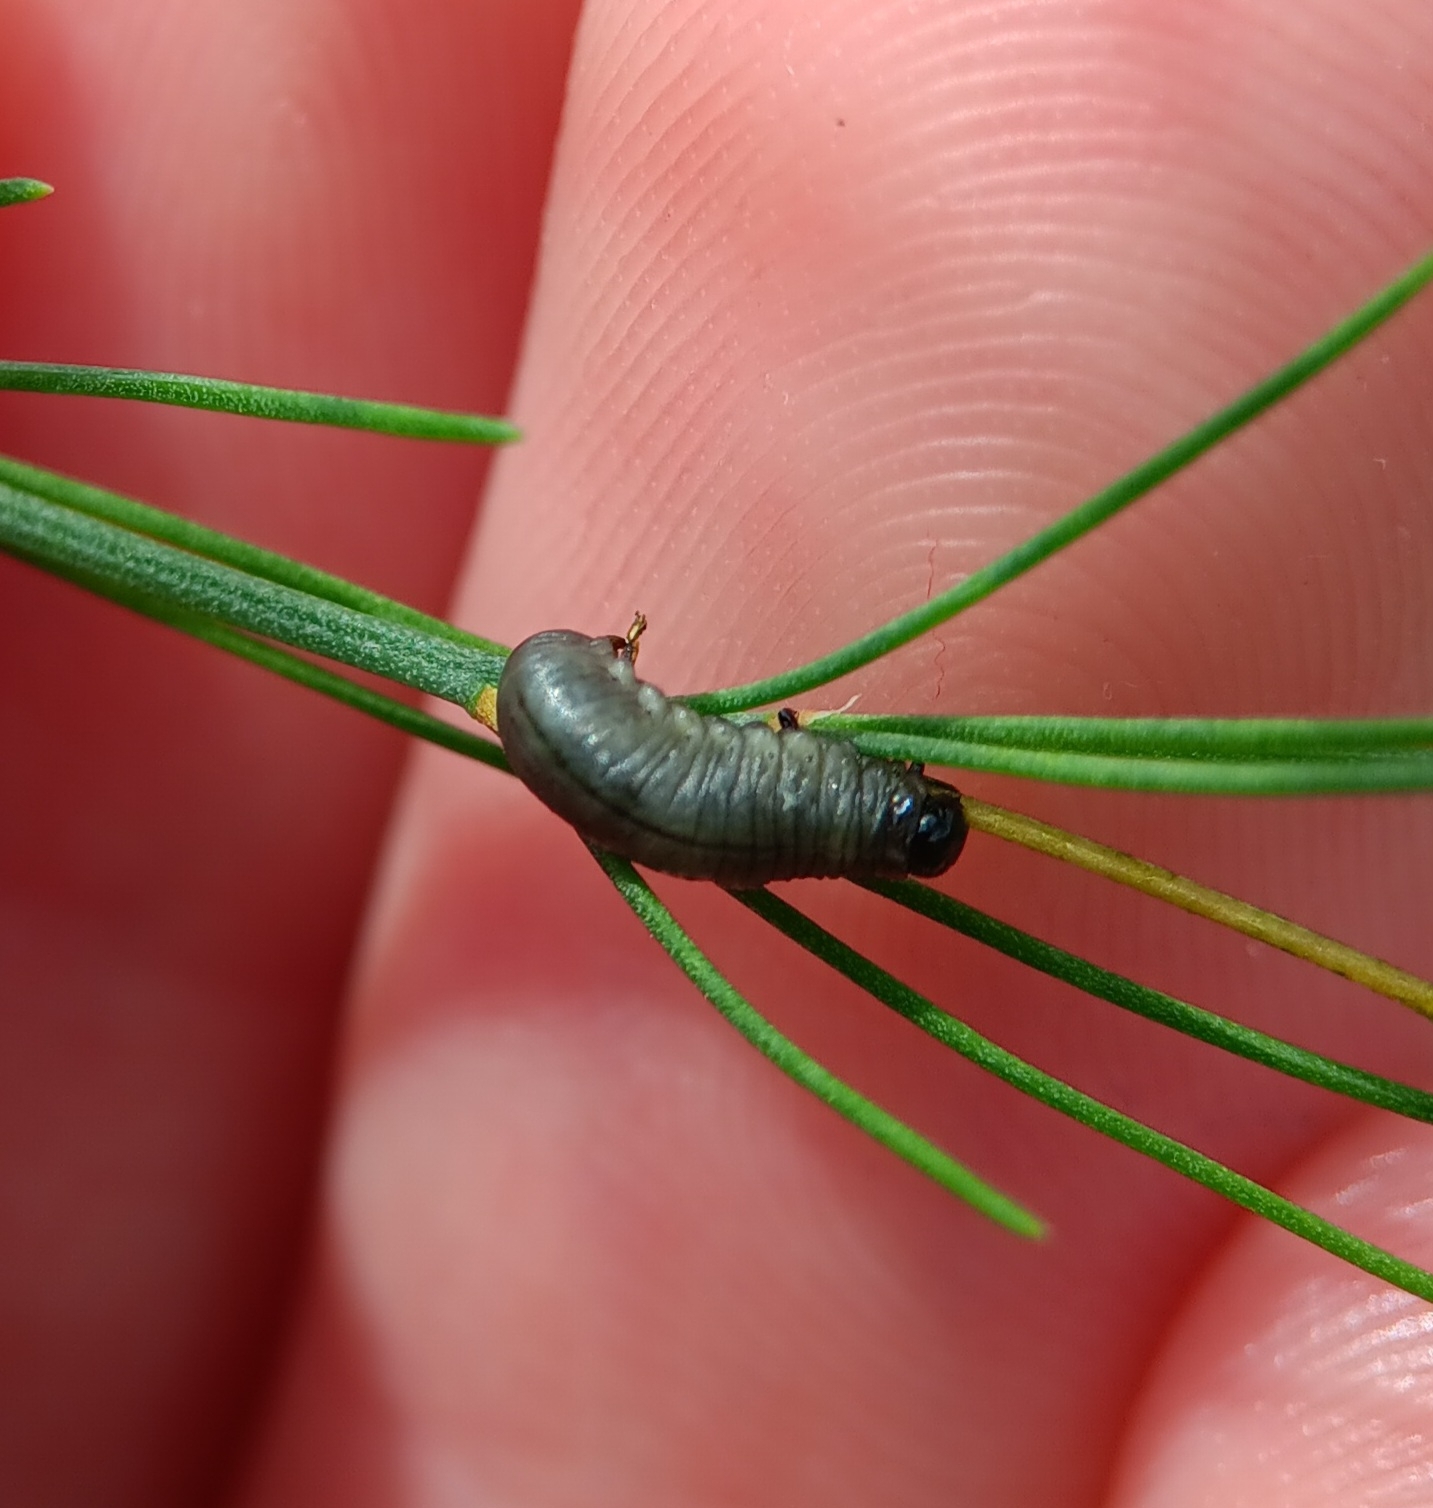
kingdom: Animalia
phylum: Arthropoda
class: Insecta
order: Coleoptera
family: Chrysomelidae
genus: Crioceris
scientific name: Crioceris asparagi
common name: Asparagus beetle
